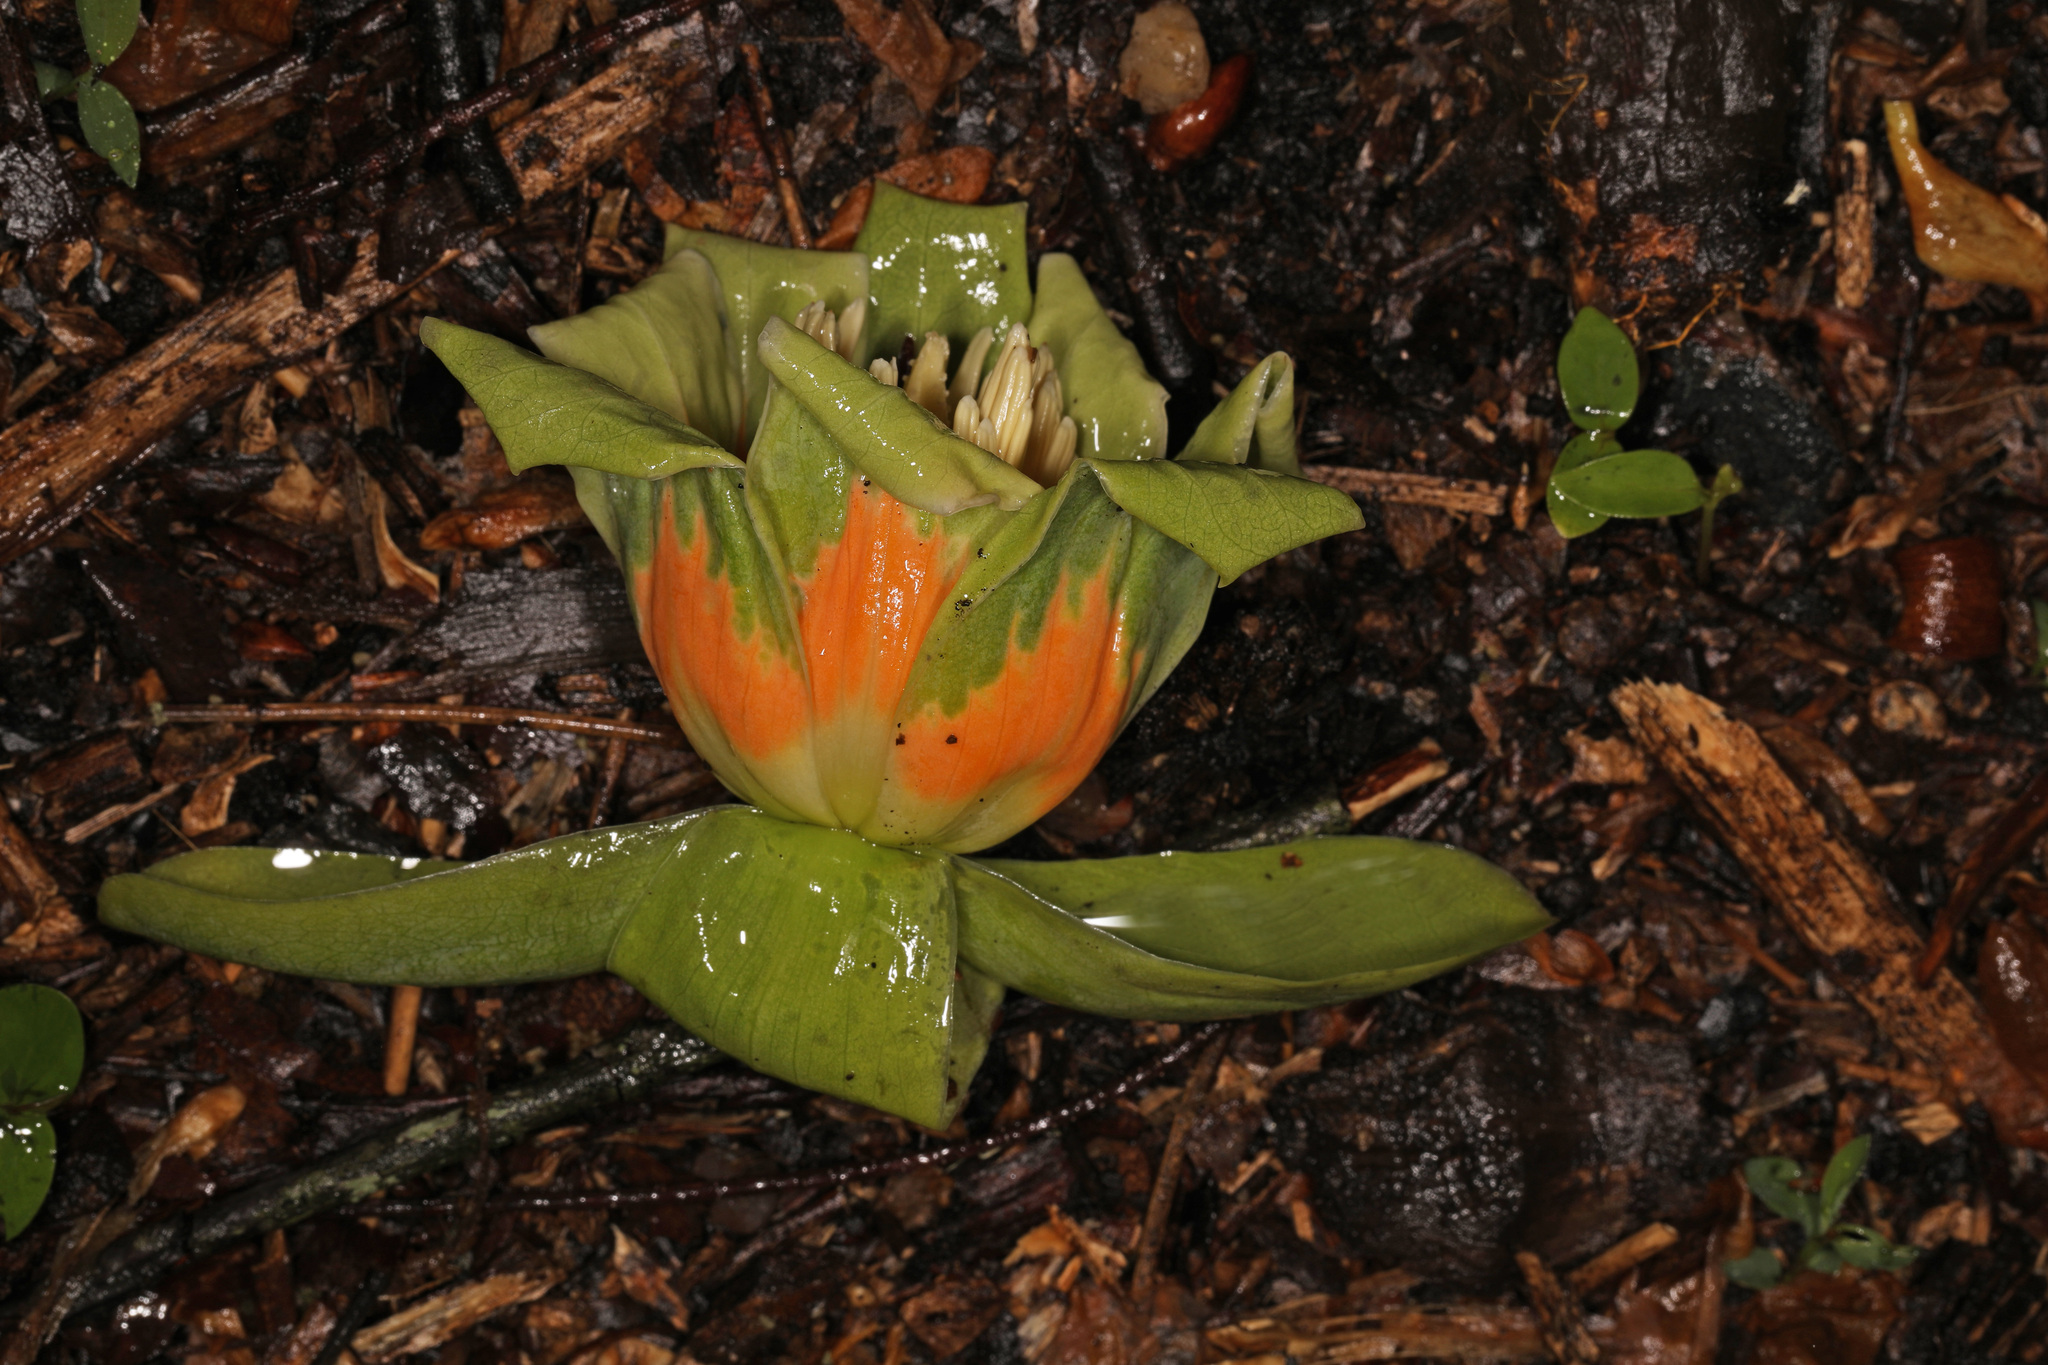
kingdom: Plantae
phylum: Tracheophyta
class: Magnoliopsida
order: Magnoliales
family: Magnoliaceae
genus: Liriodendron
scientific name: Liriodendron tulipifera
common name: Tulip tree
